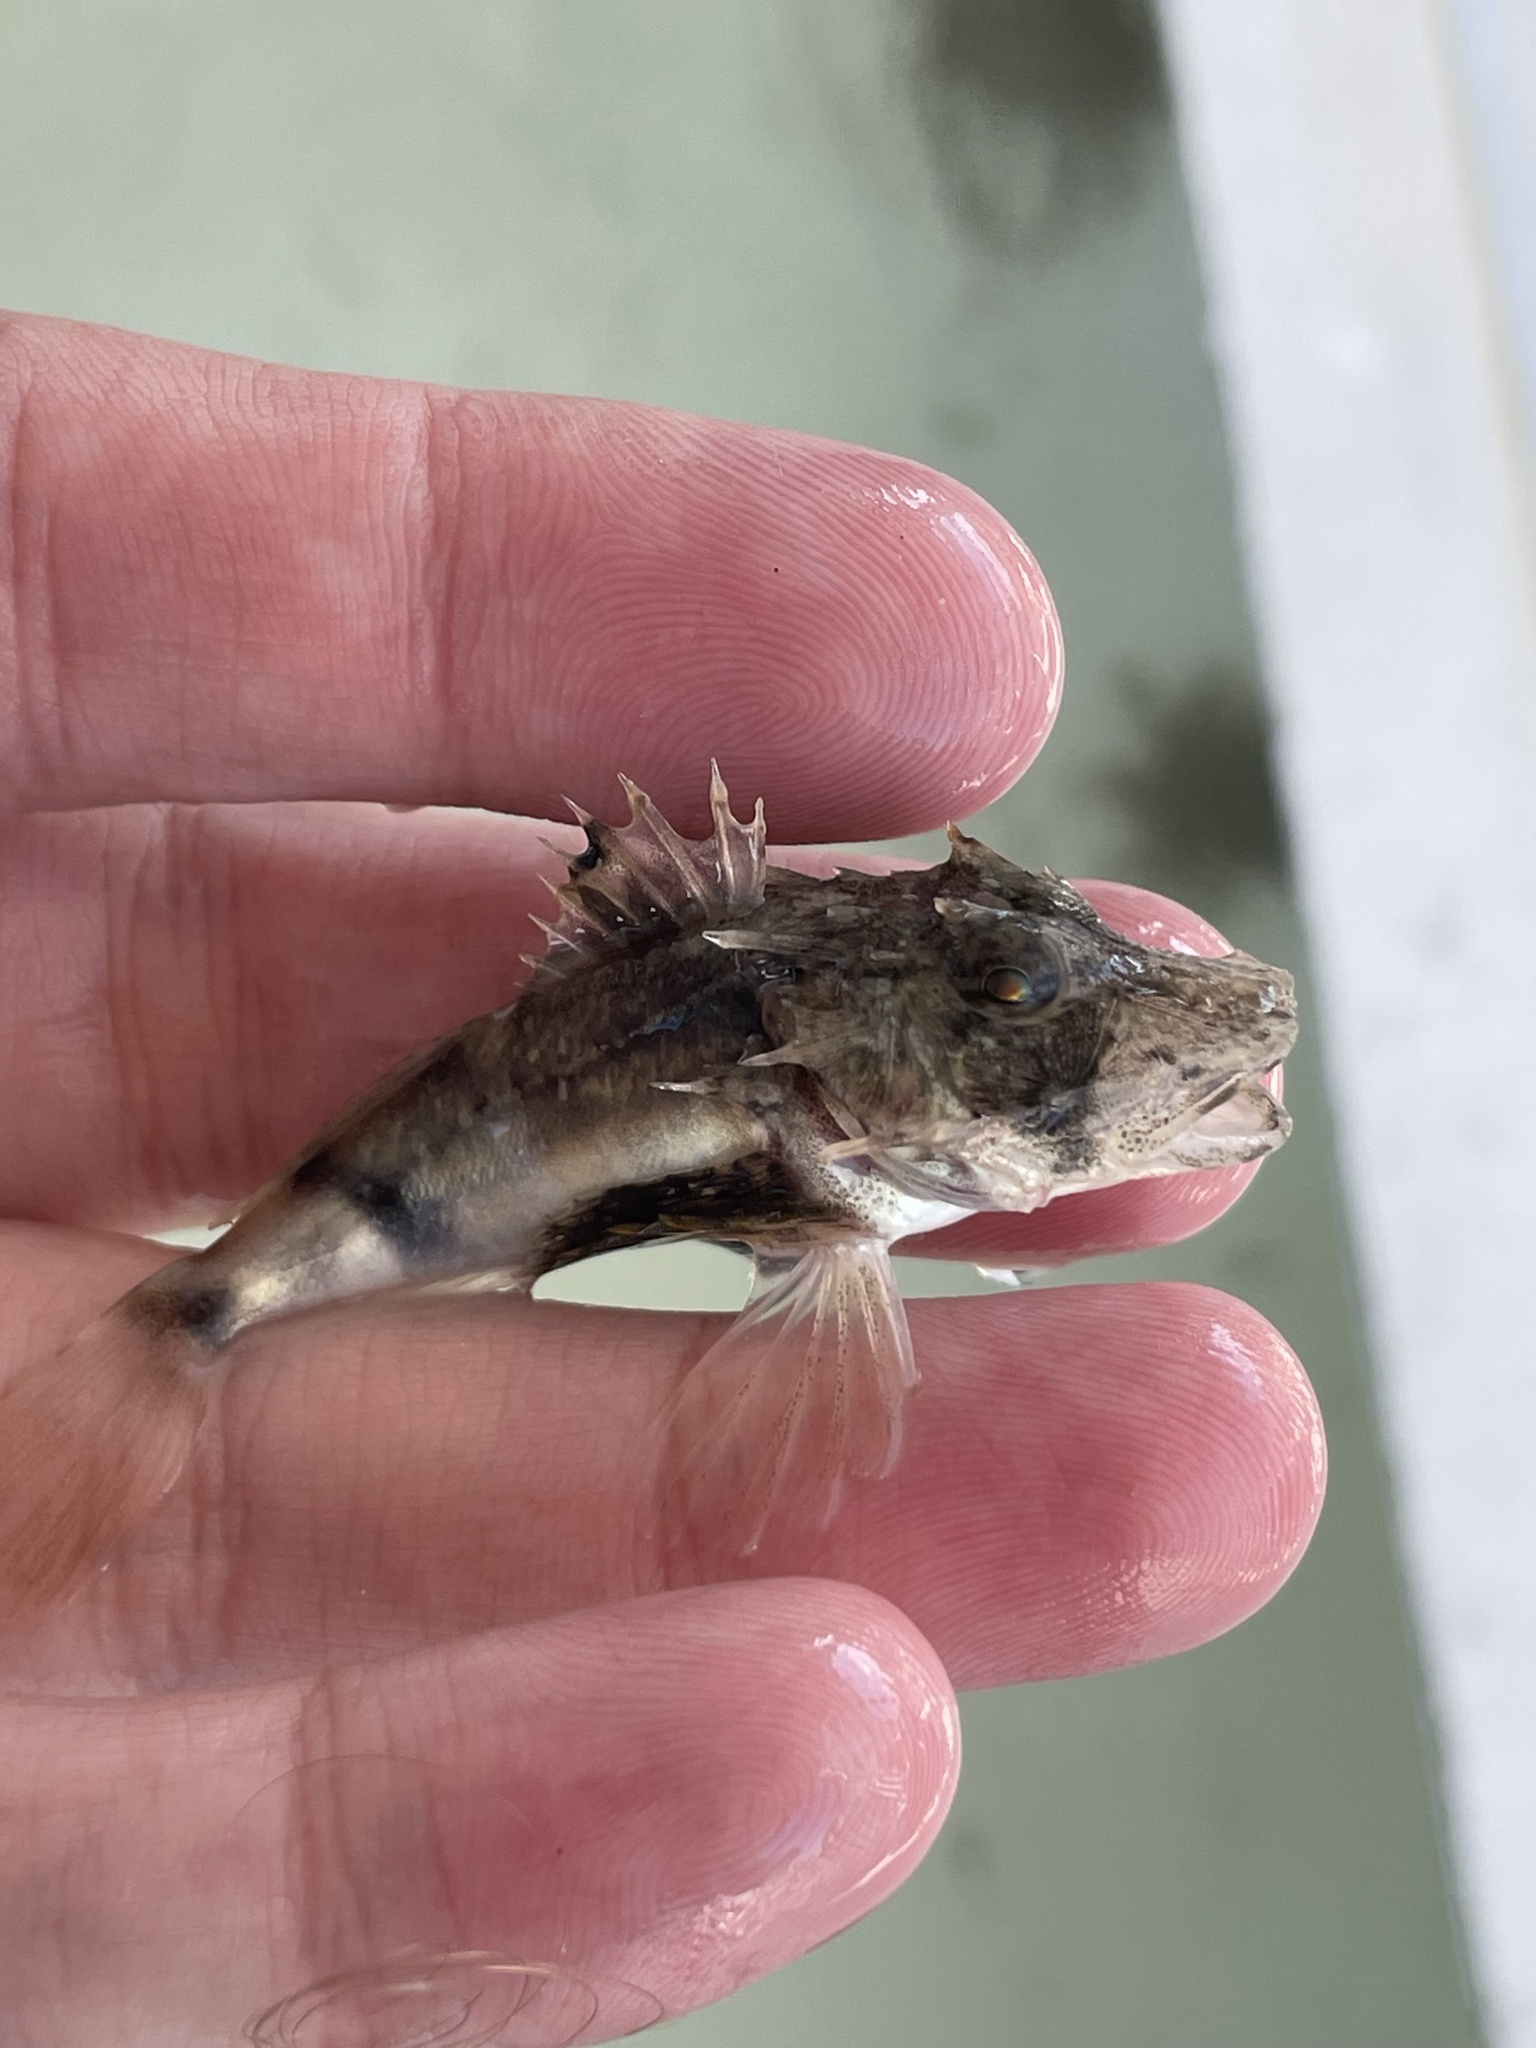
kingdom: Animalia
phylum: Chordata
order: Scorpaeniformes
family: Triglidae
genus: Prionotus
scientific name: Prionotus tribulus
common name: Bighead searobin
